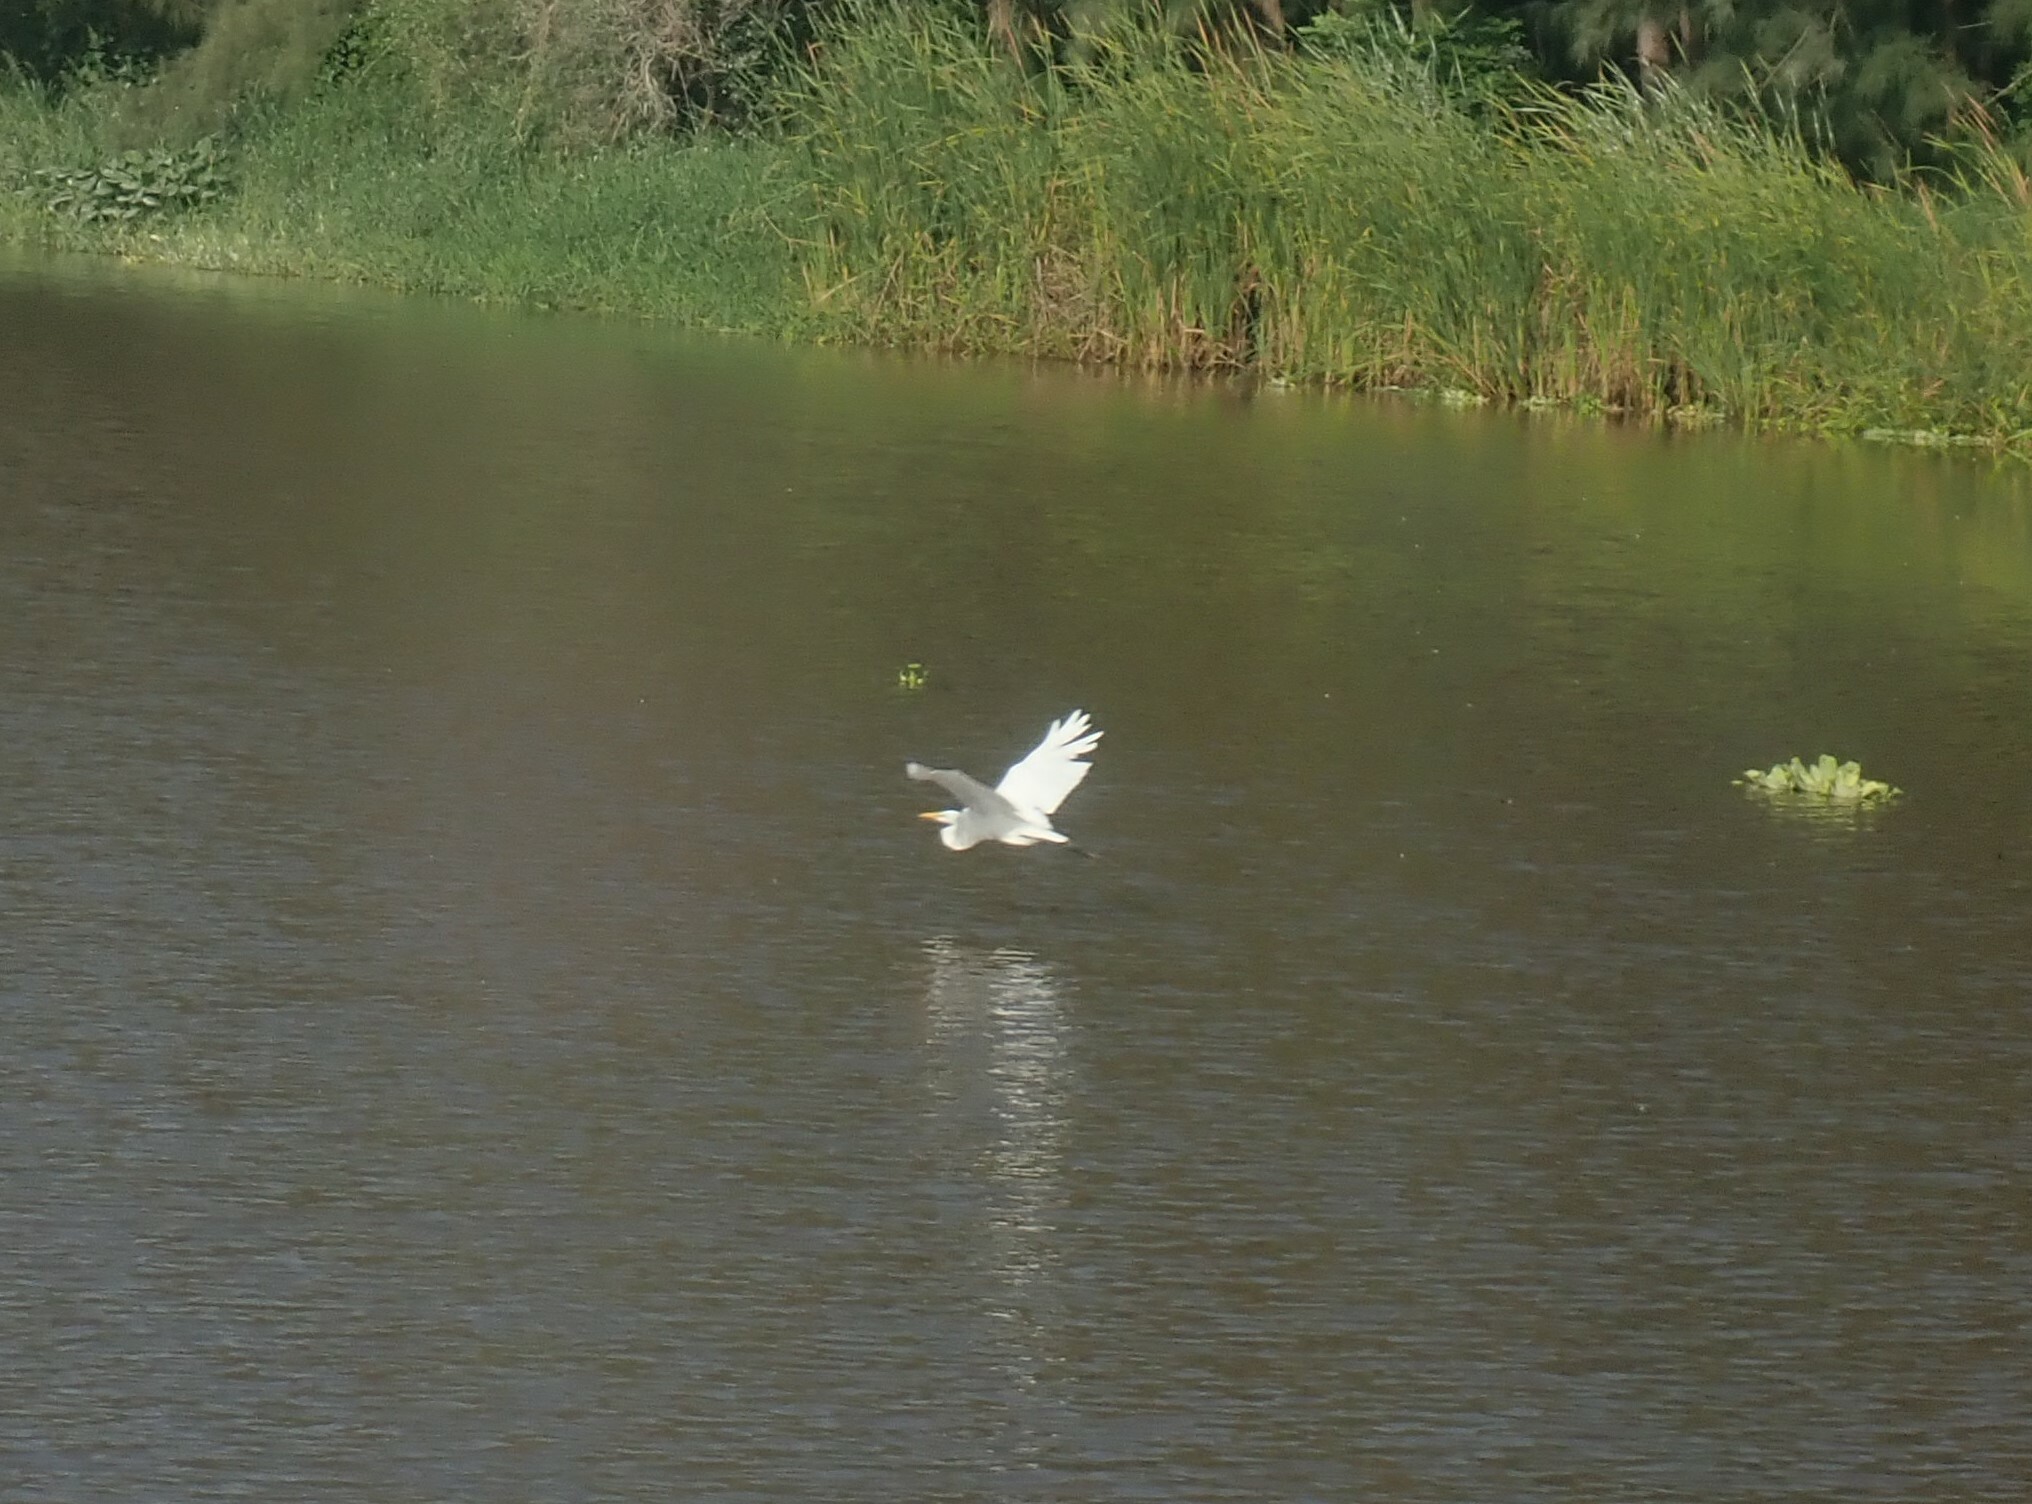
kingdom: Animalia
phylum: Chordata
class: Aves
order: Pelecaniformes
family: Ardeidae
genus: Ardea
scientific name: Ardea alba
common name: Great egret
